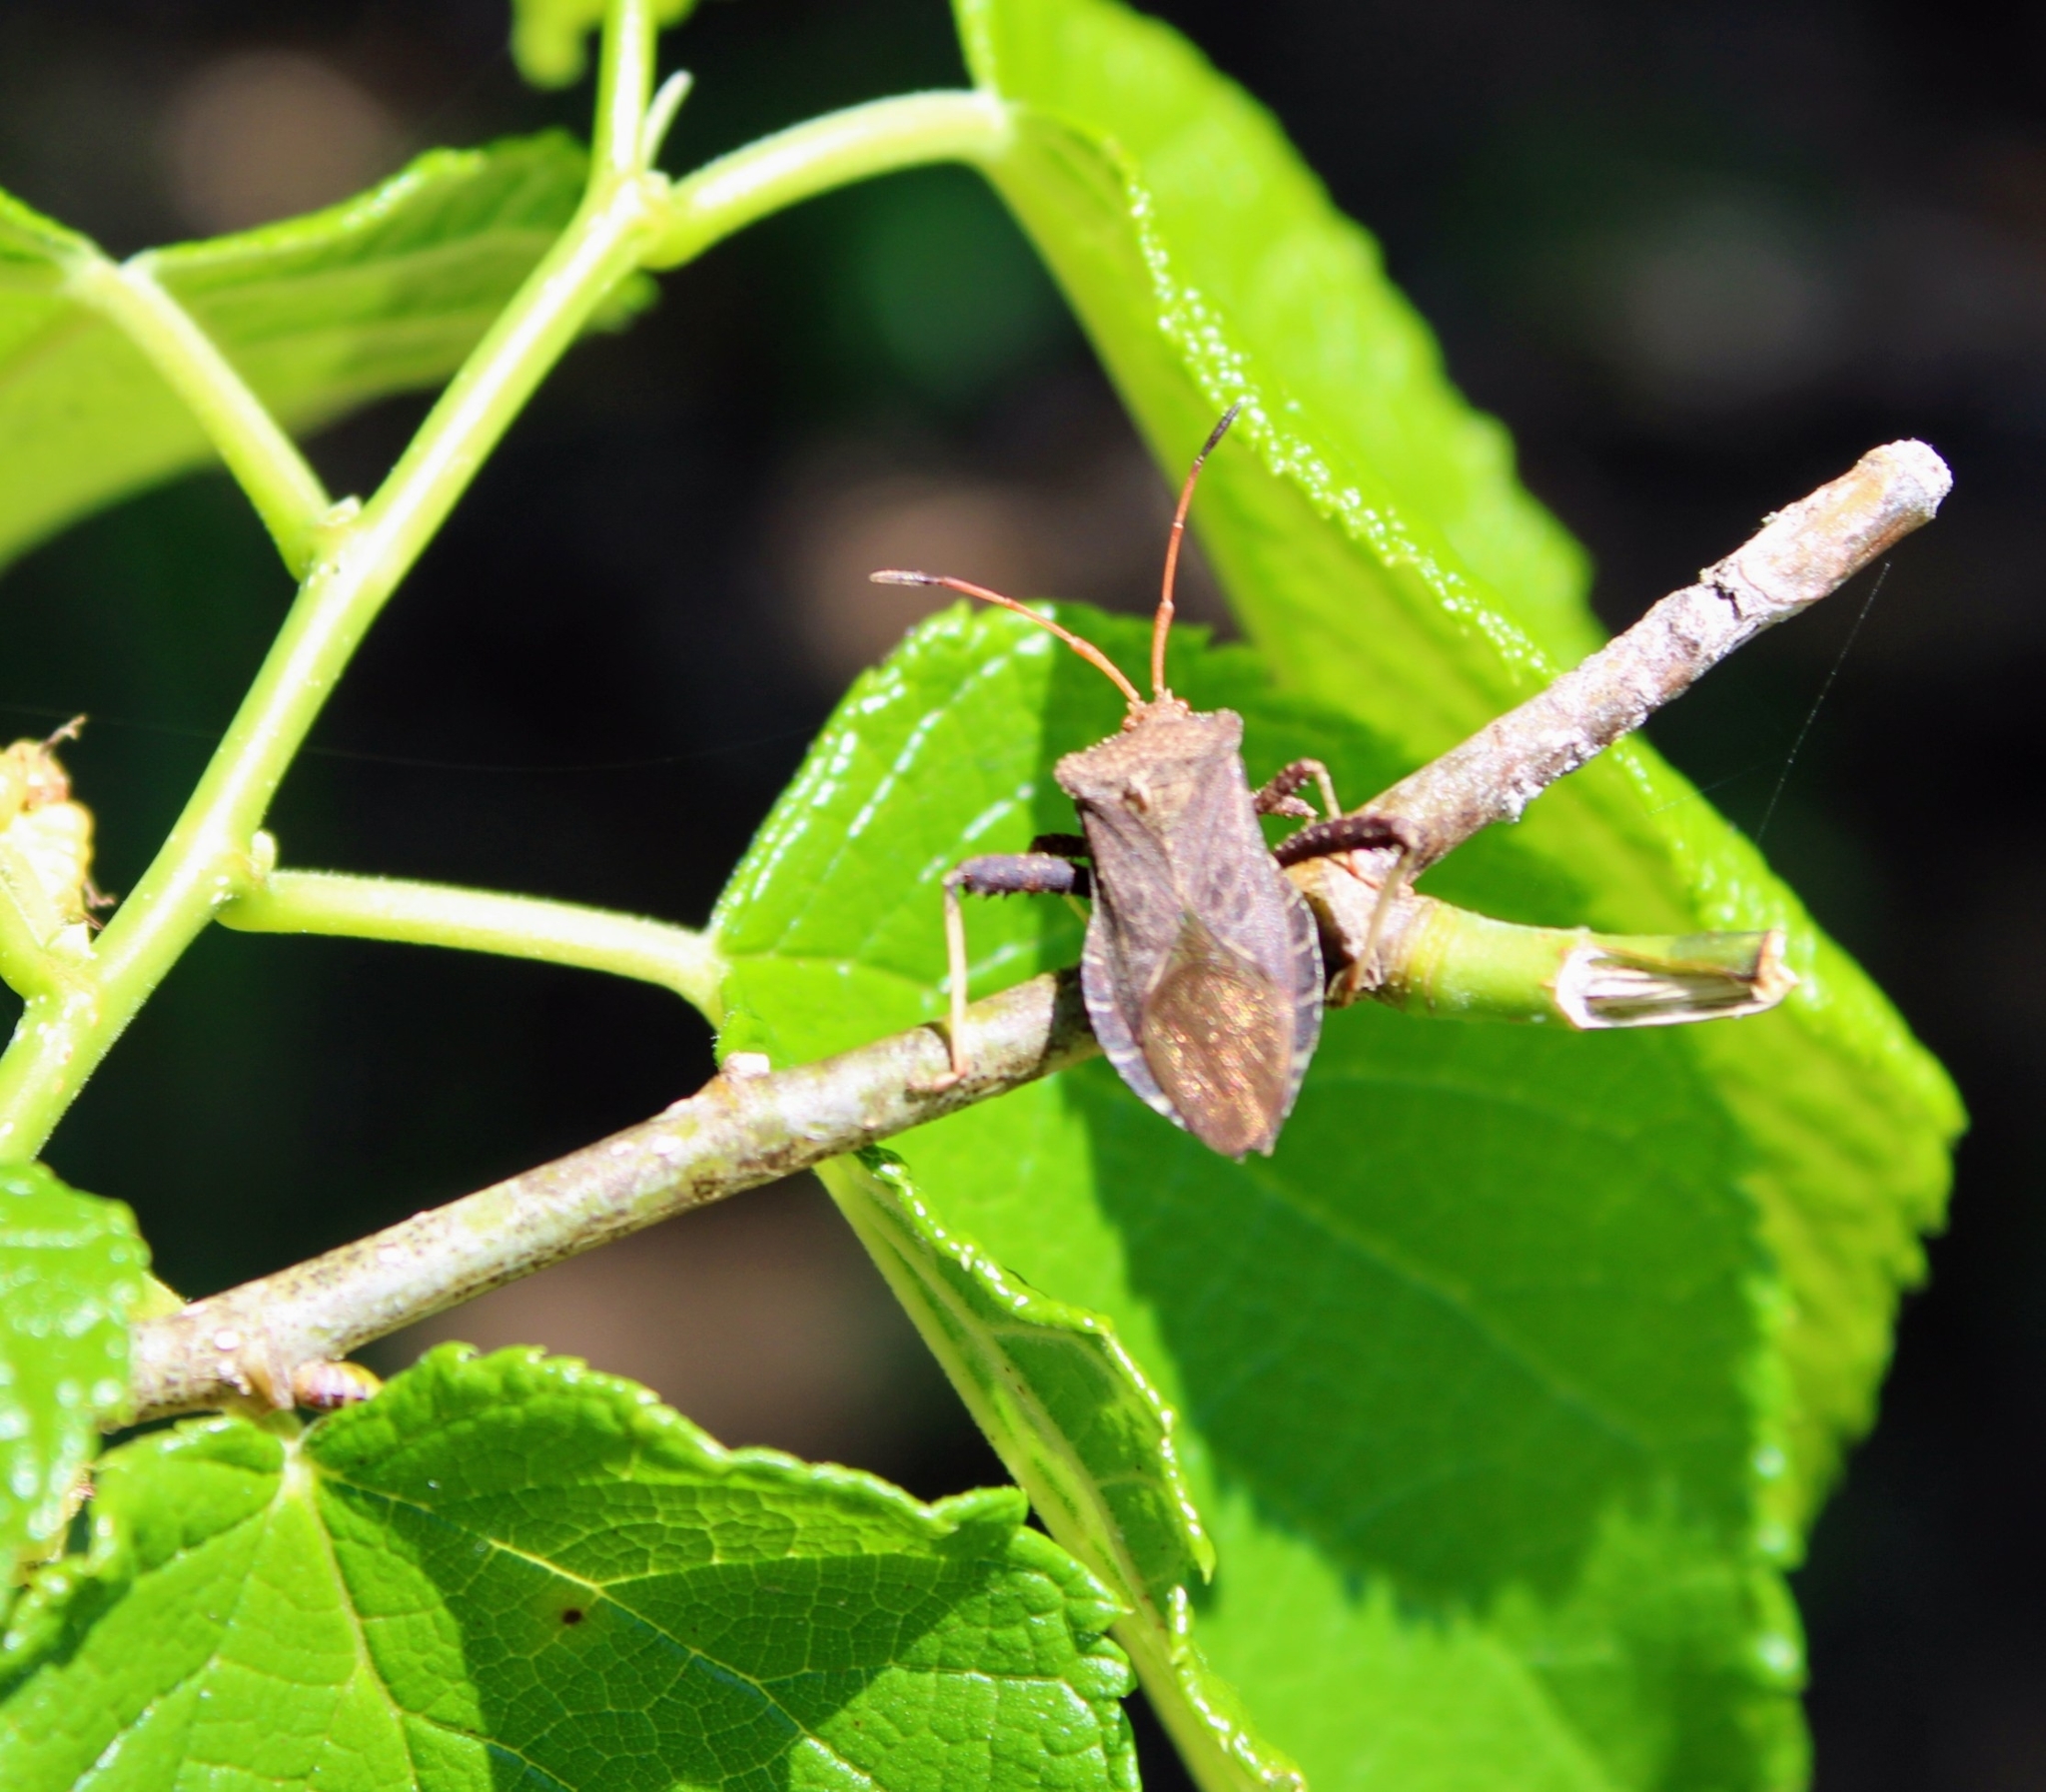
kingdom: Animalia
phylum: Arthropoda
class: Insecta
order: Hemiptera
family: Coreidae
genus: Euthochtha
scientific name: Euthochtha galeator
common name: Helmeted squash bug
